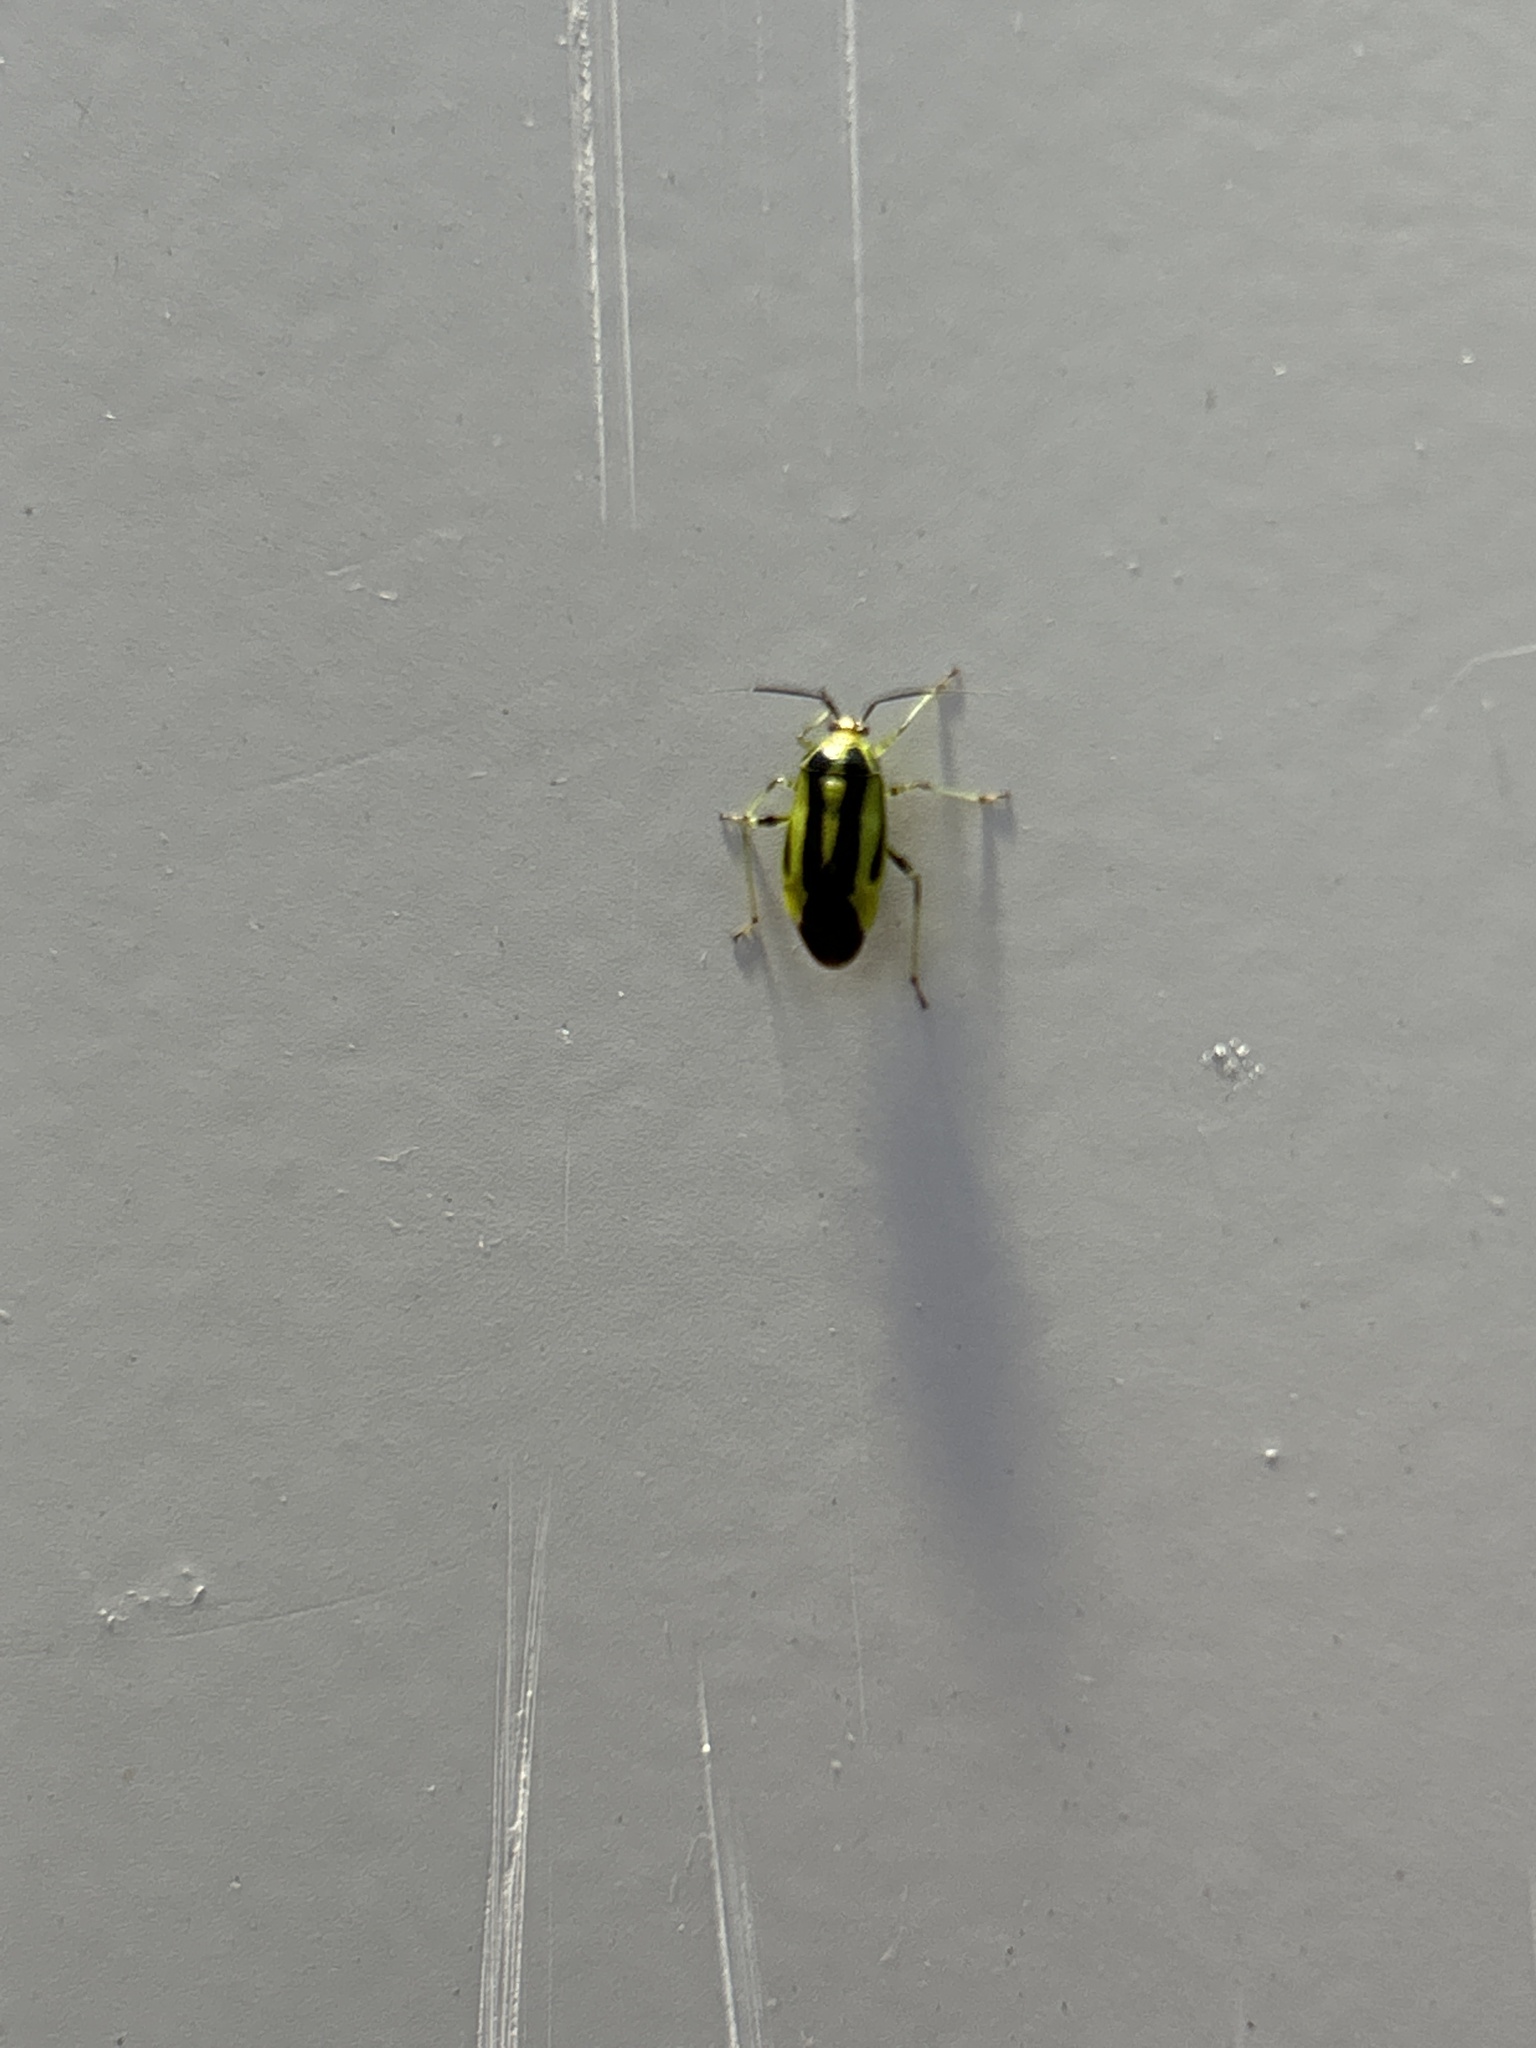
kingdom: Animalia
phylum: Arthropoda
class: Insecta
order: Hemiptera
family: Miridae
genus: Poecilocapsus
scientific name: Poecilocapsus lineatus
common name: Four-lined plant bug
